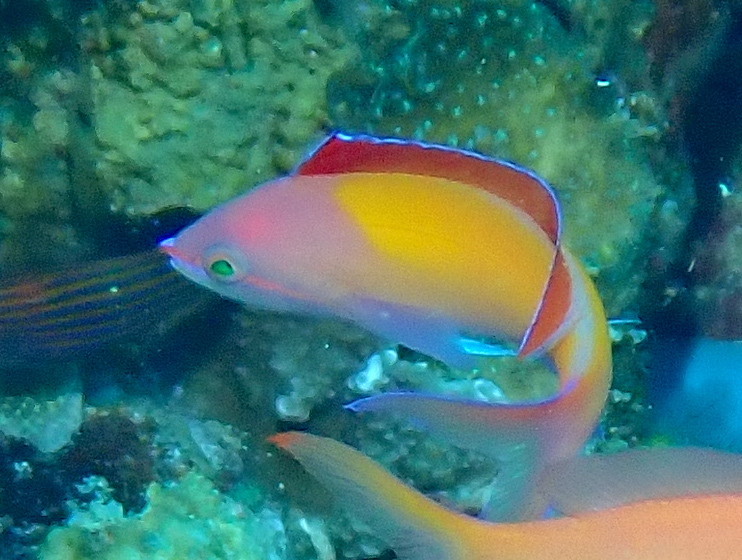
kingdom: Animalia
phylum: Chordata
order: Perciformes
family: Serranidae
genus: Nemanthias
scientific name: Nemanthias
